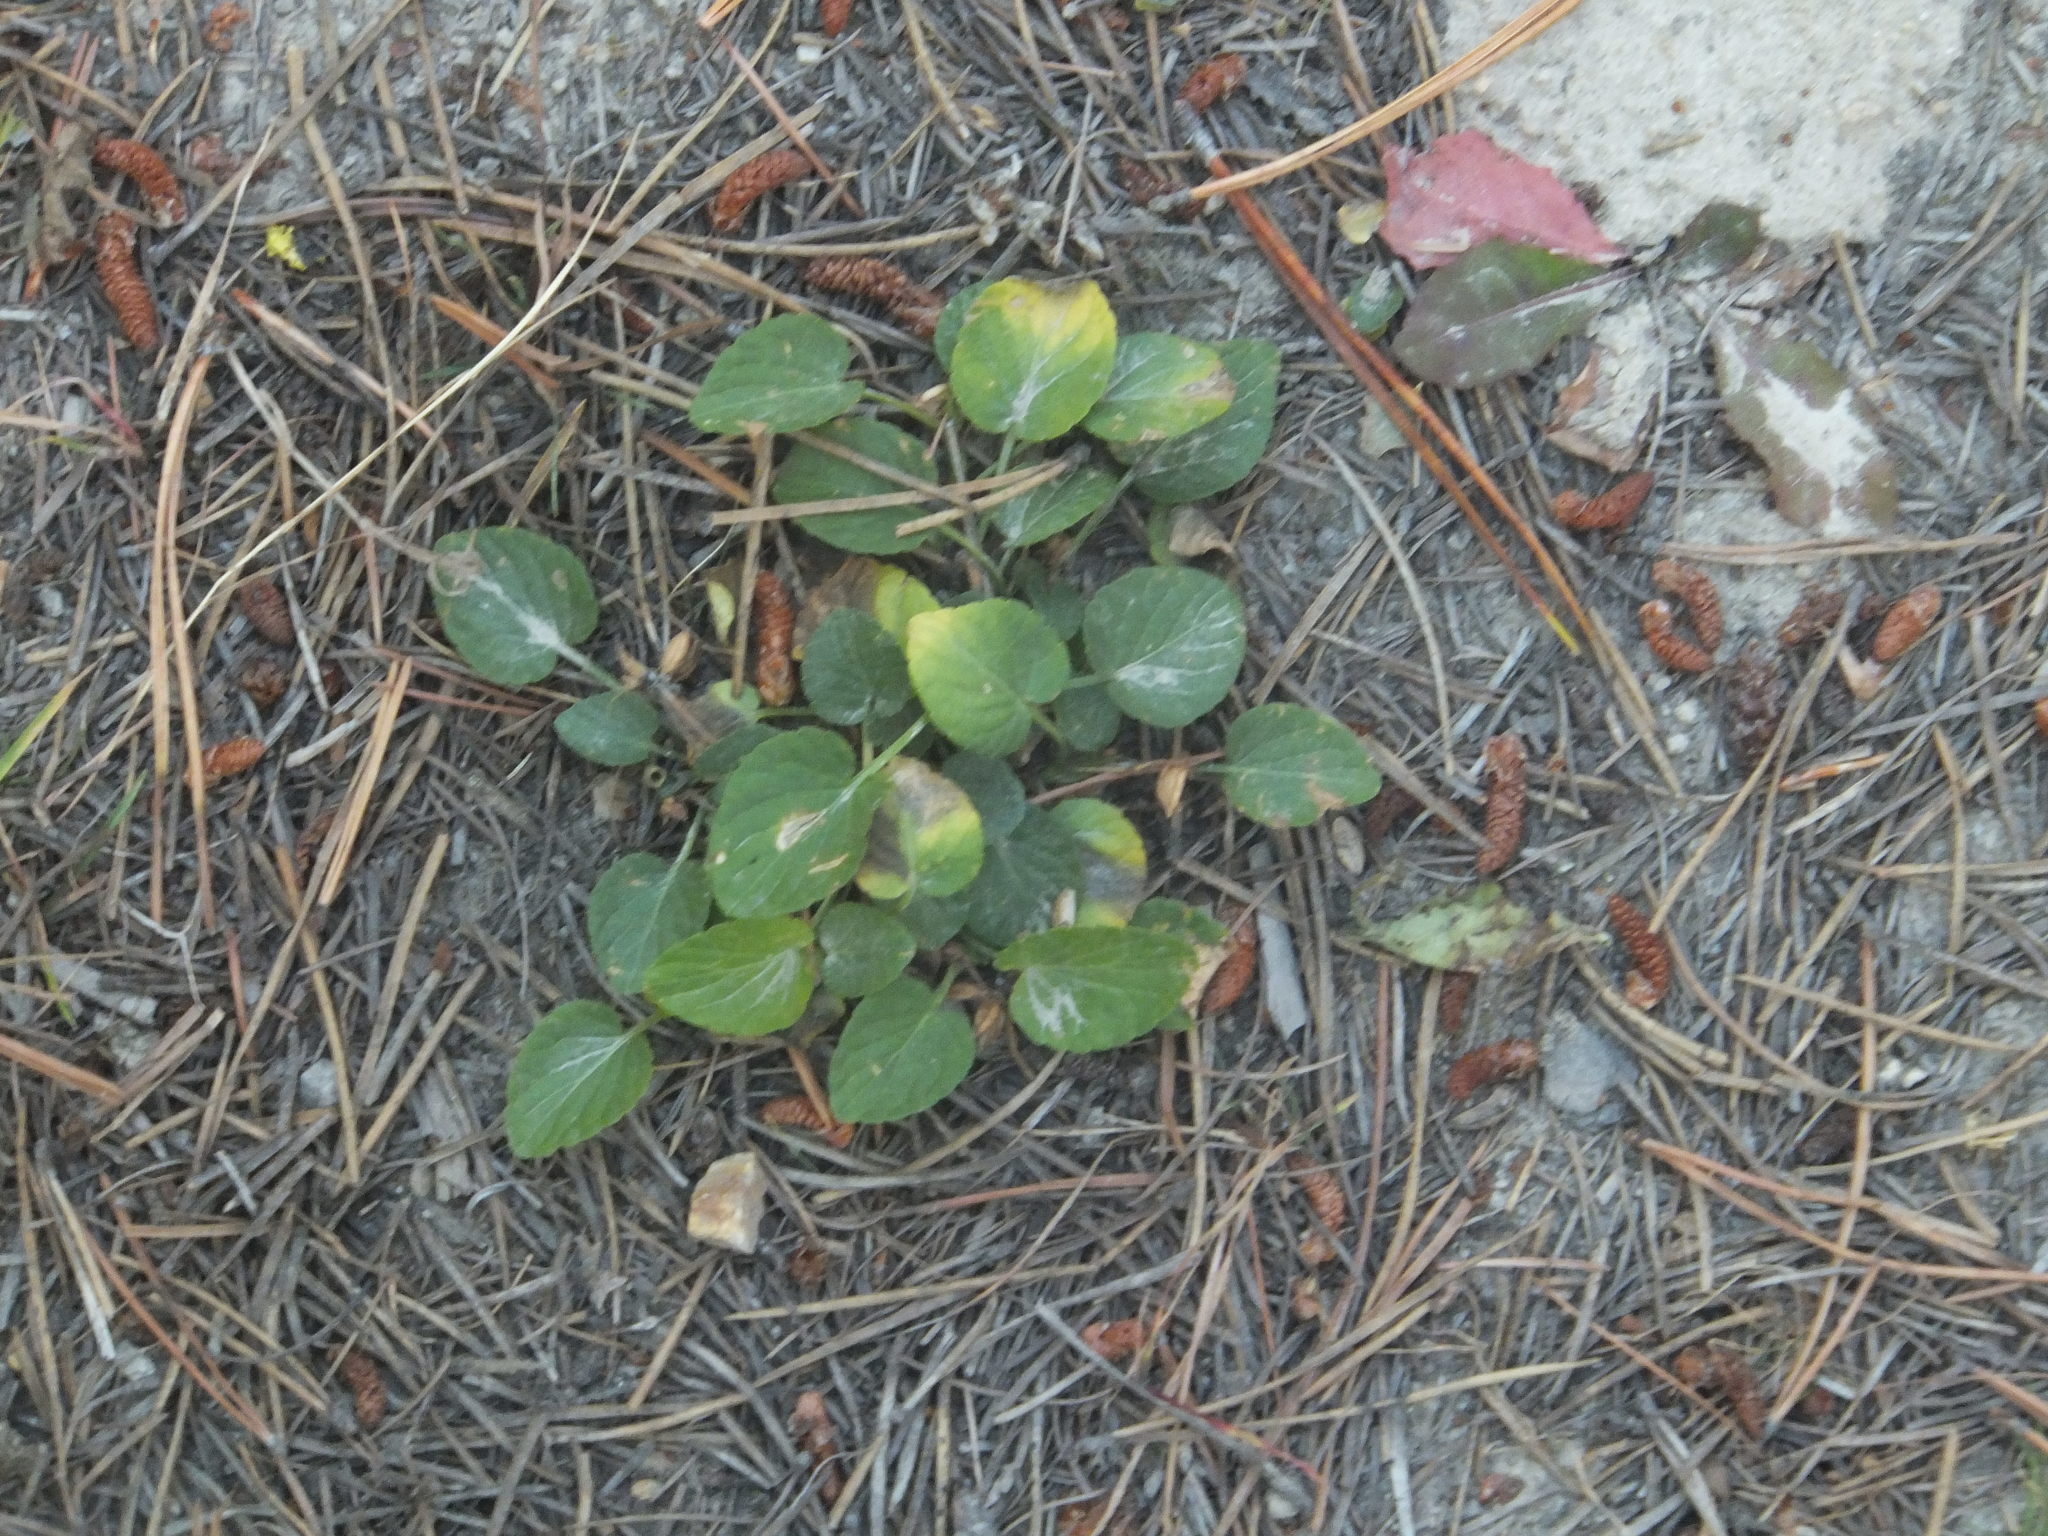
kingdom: Plantae
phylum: Tracheophyta
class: Magnoliopsida
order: Malpighiales
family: Violaceae
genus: Viola
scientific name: Viola adunca
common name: Sand violet
